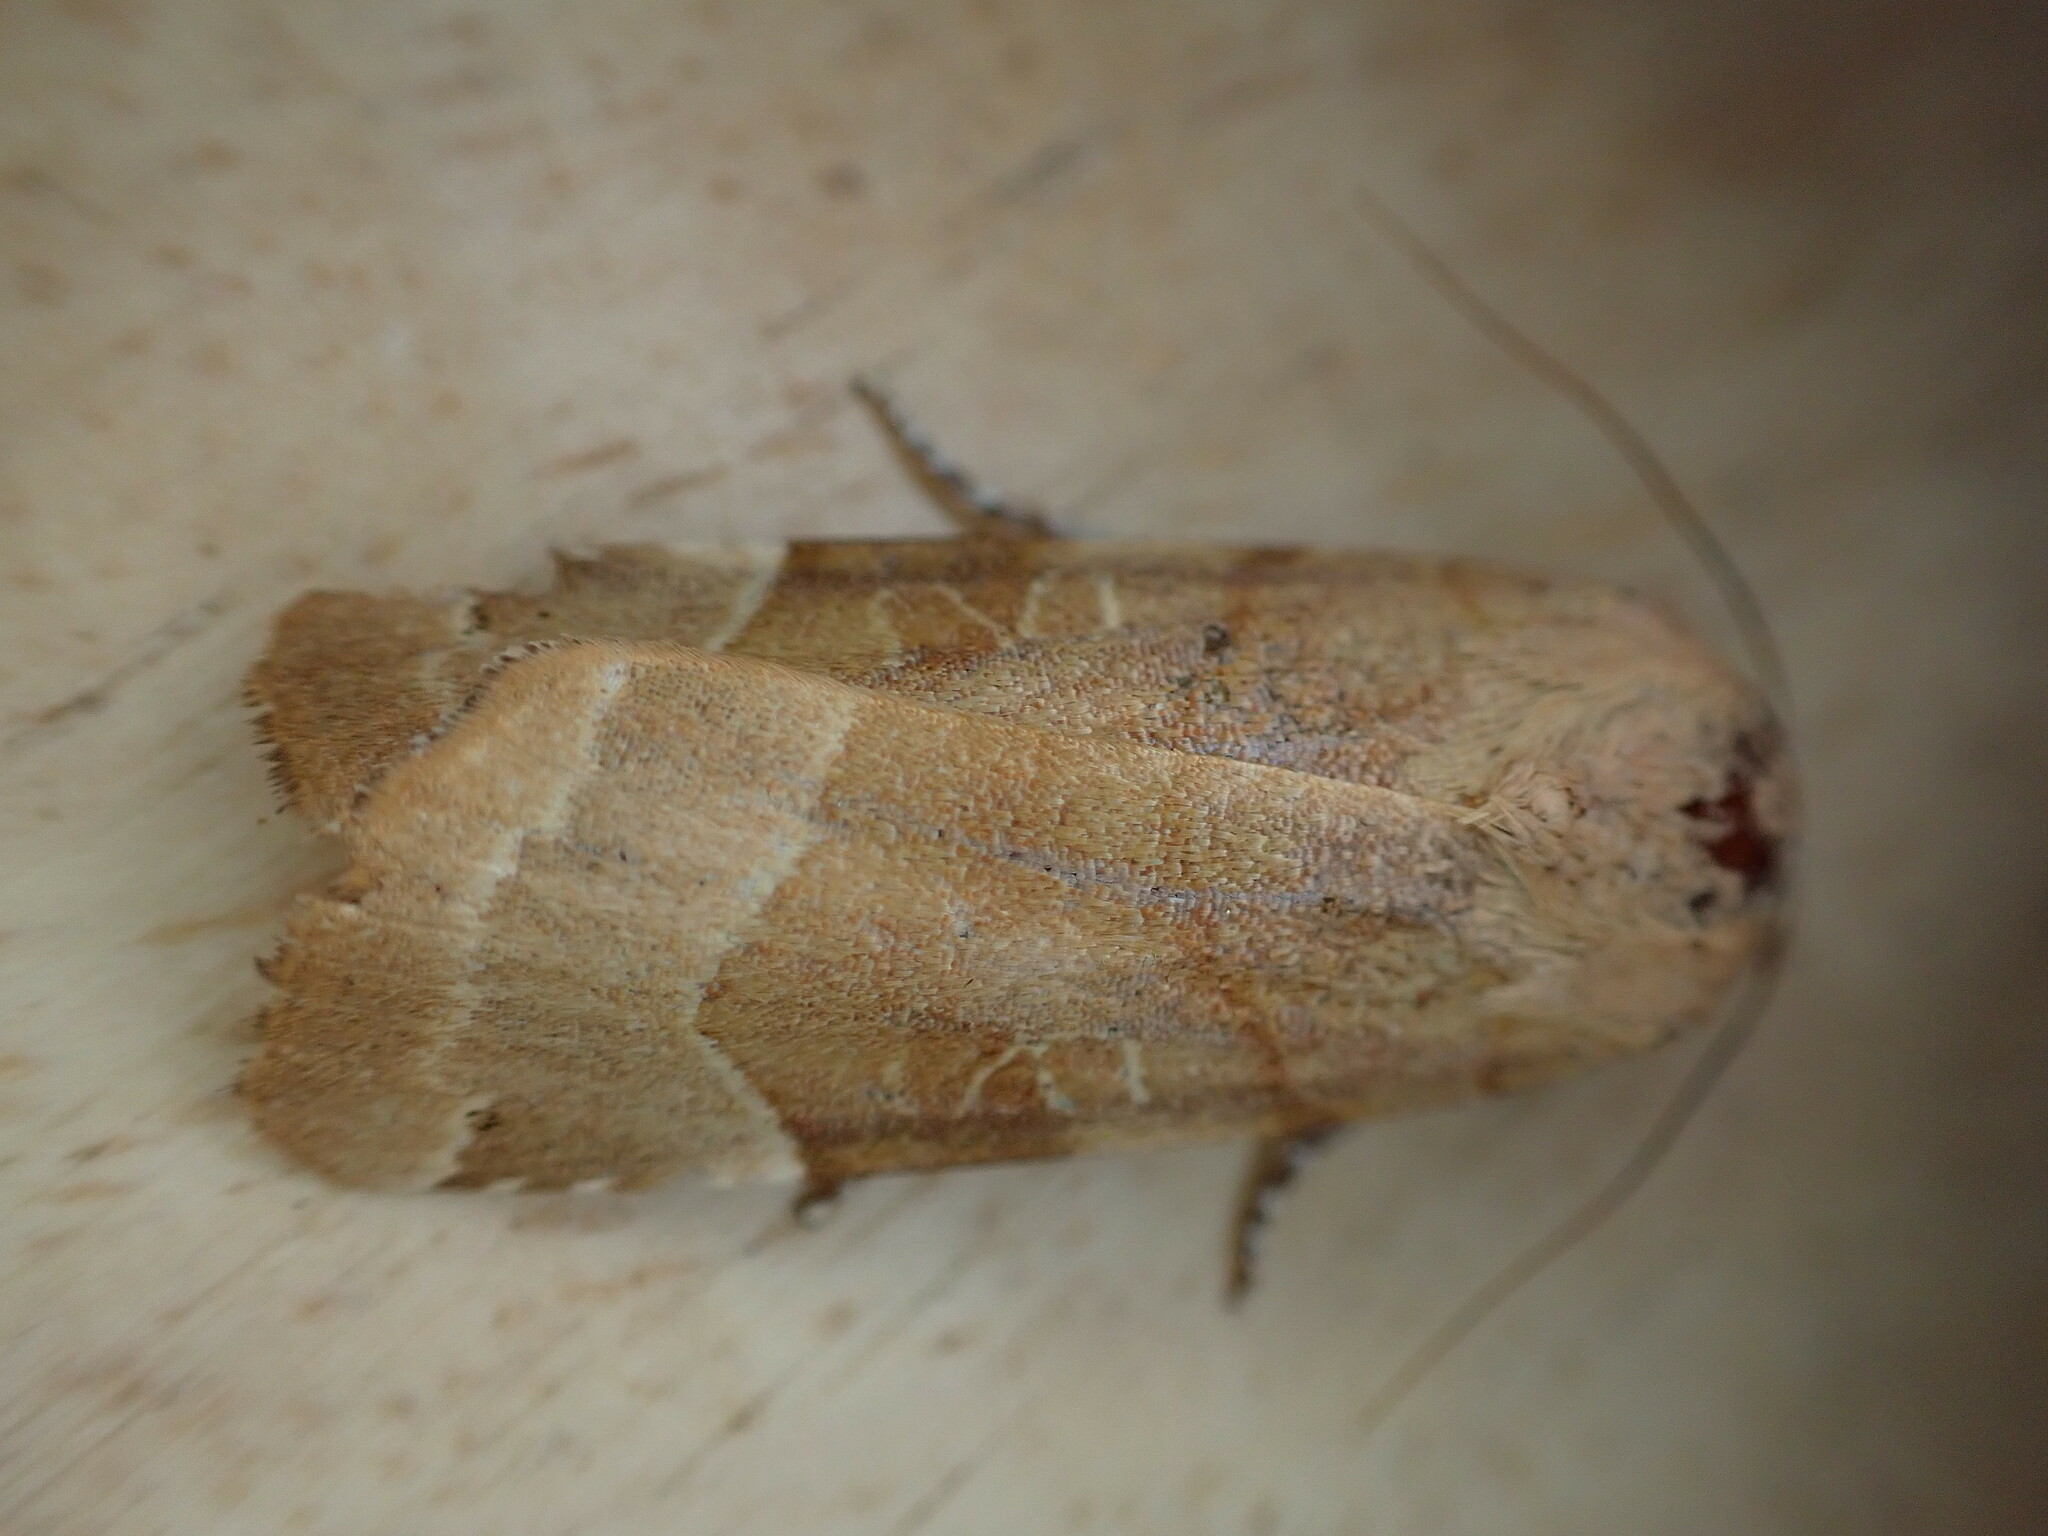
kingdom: Animalia
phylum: Arthropoda
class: Insecta
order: Lepidoptera
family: Noctuidae
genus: Noctua
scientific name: Noctua fimbriata
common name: Broad-bordered yellow underwing
